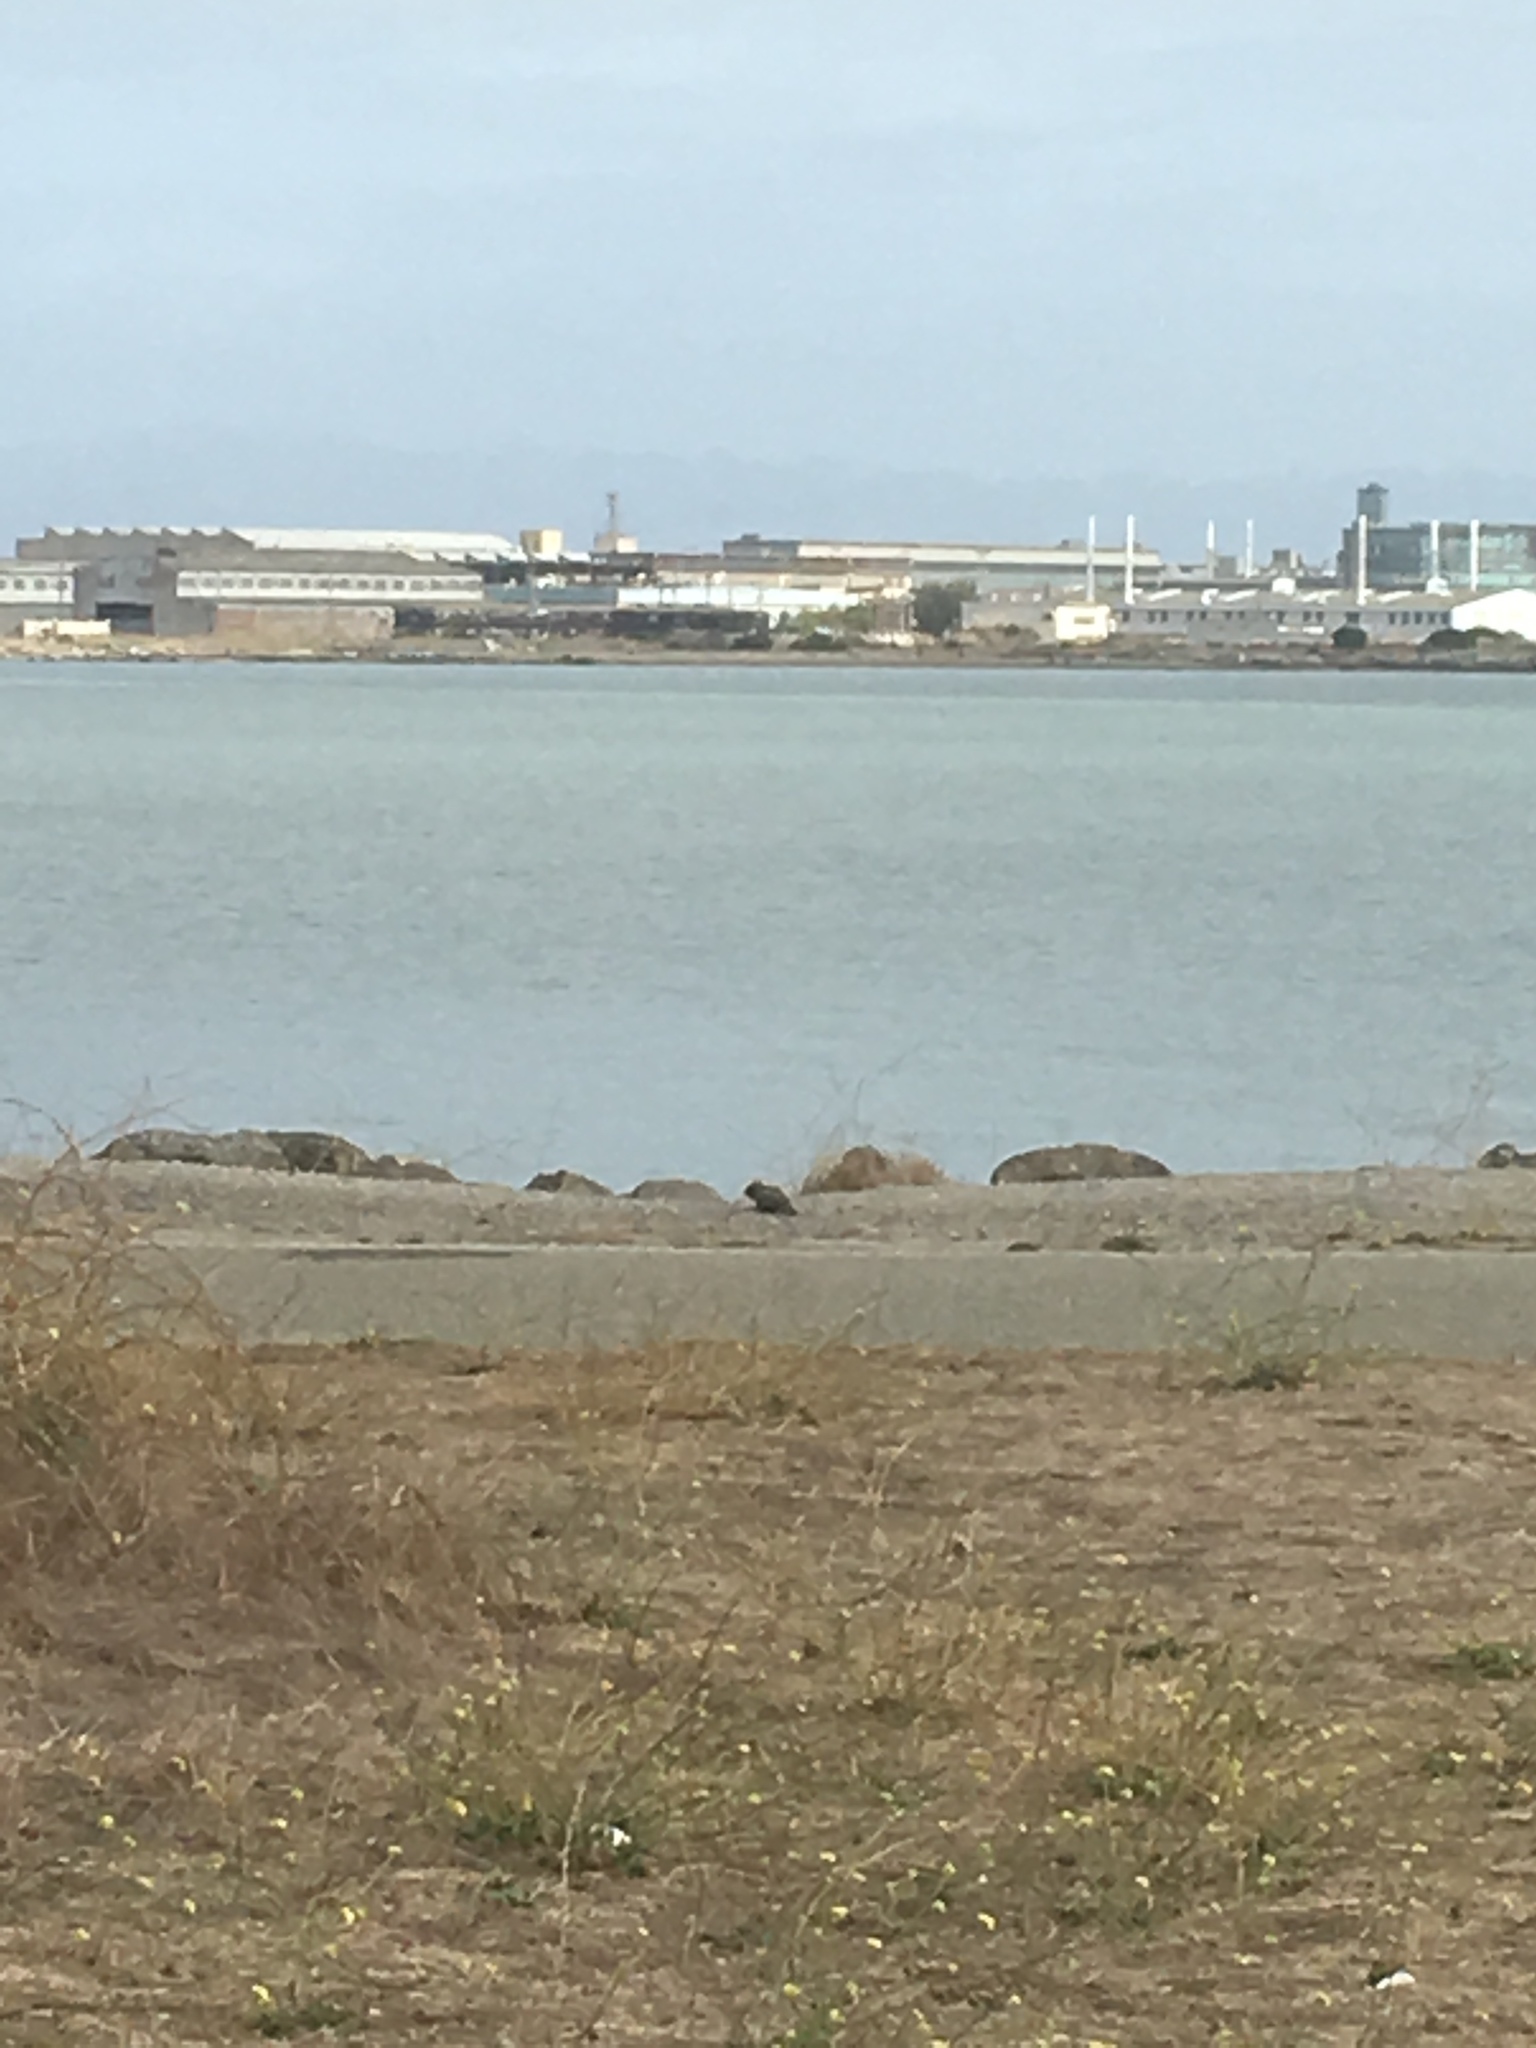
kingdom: Animalia
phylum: Chordata
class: Mammalia
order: Rodentia
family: Sciuridae
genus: Otospermophilus
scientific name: Otospermophilus beecheyi
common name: California ground squirrel
